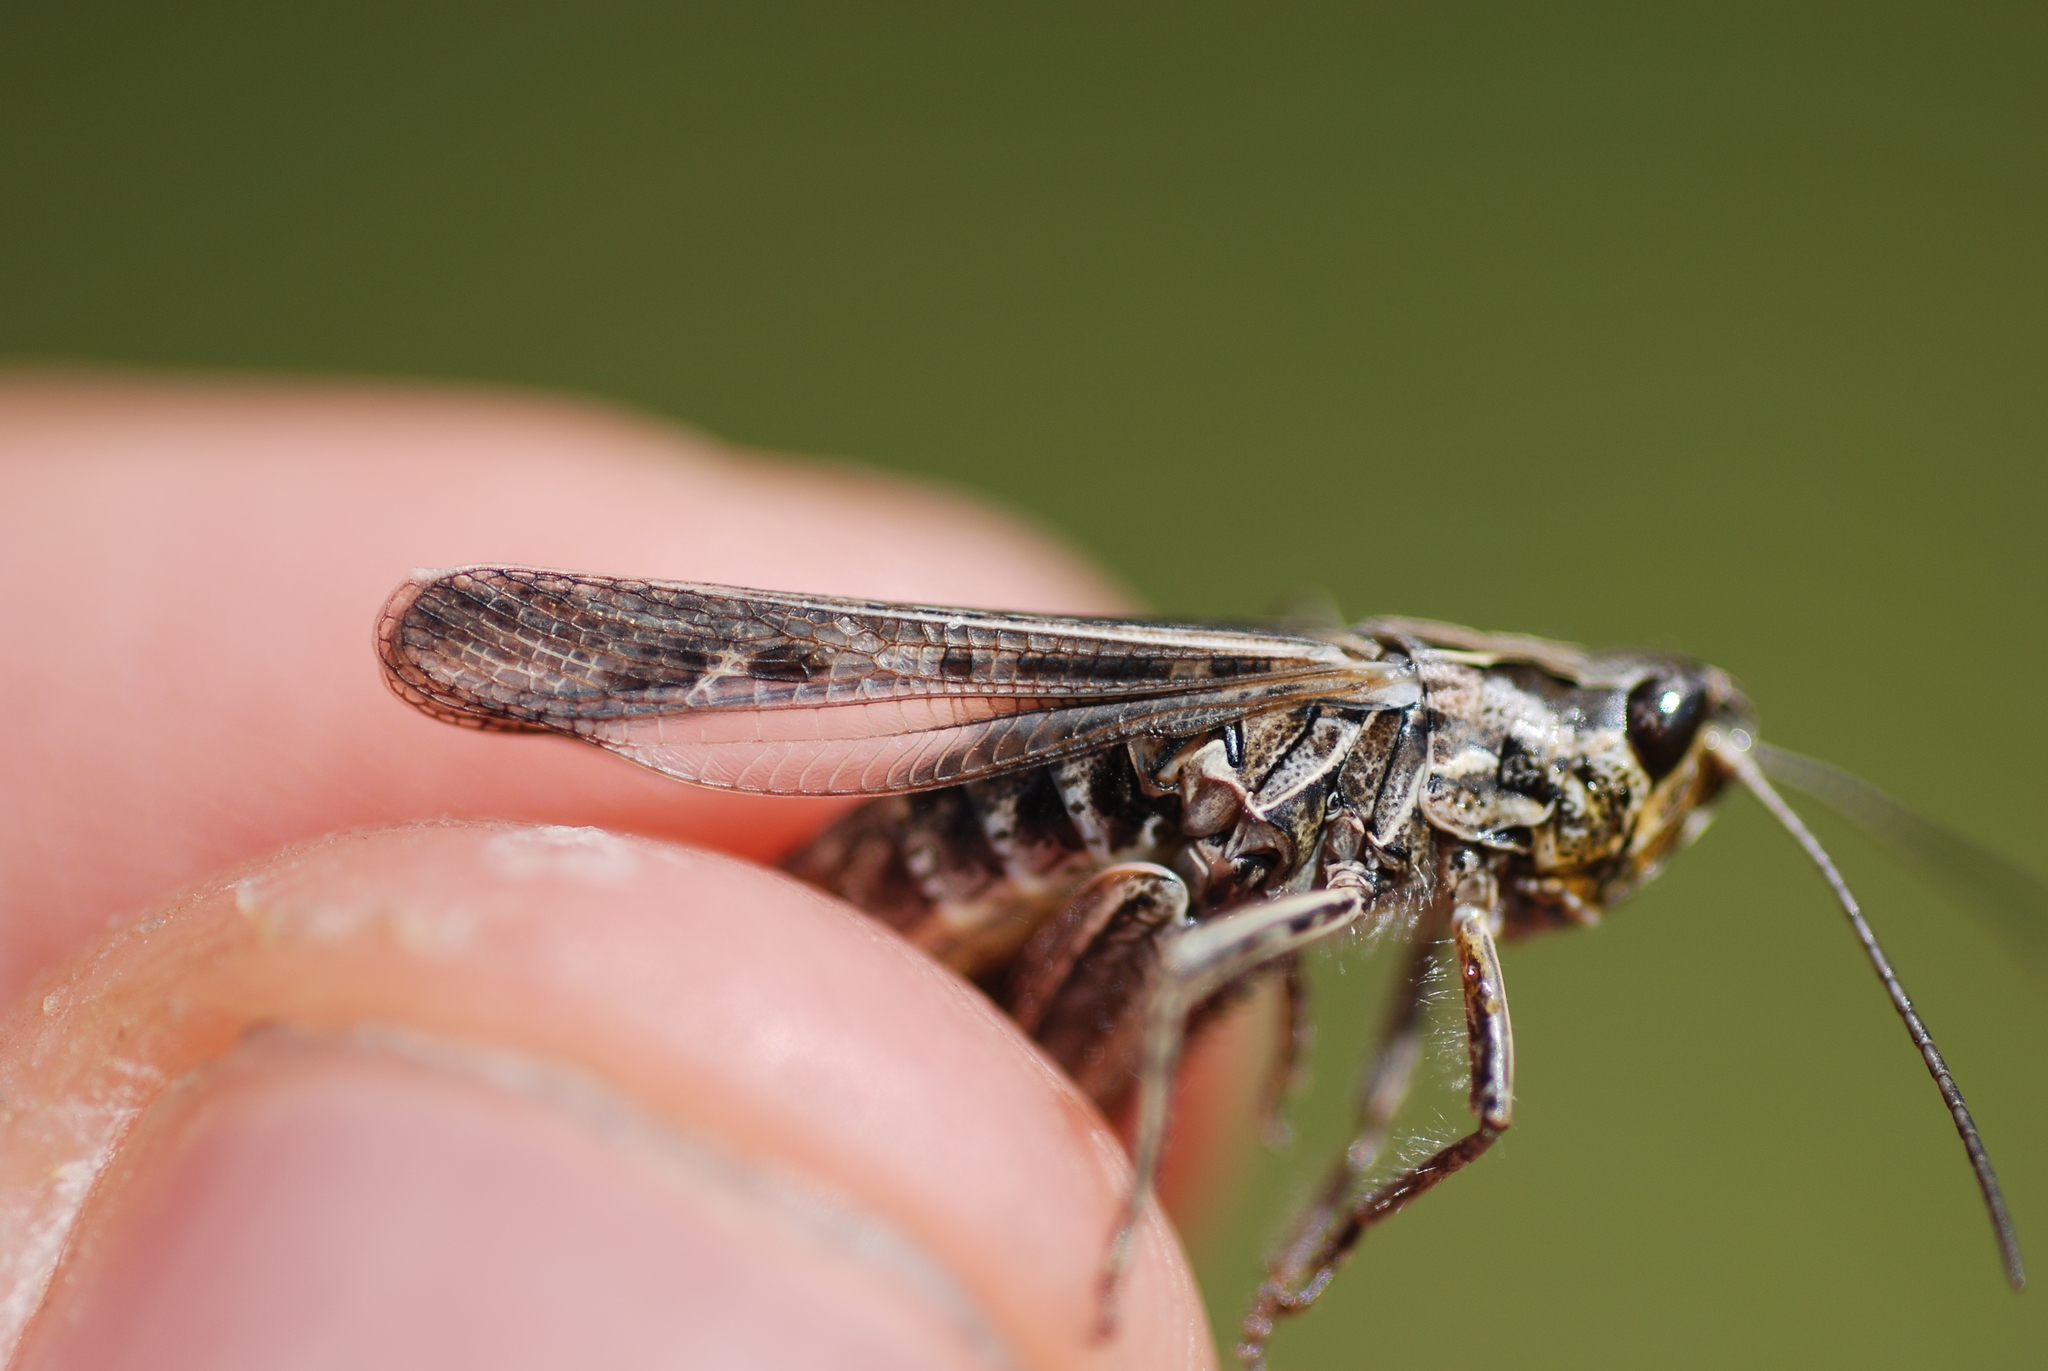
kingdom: Animalia
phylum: Arthropoda
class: Insecta
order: Orthoptera
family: Acrididae
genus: Chorthippus
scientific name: Chorthippus biguttulus
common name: Bow-winged grasshopper
